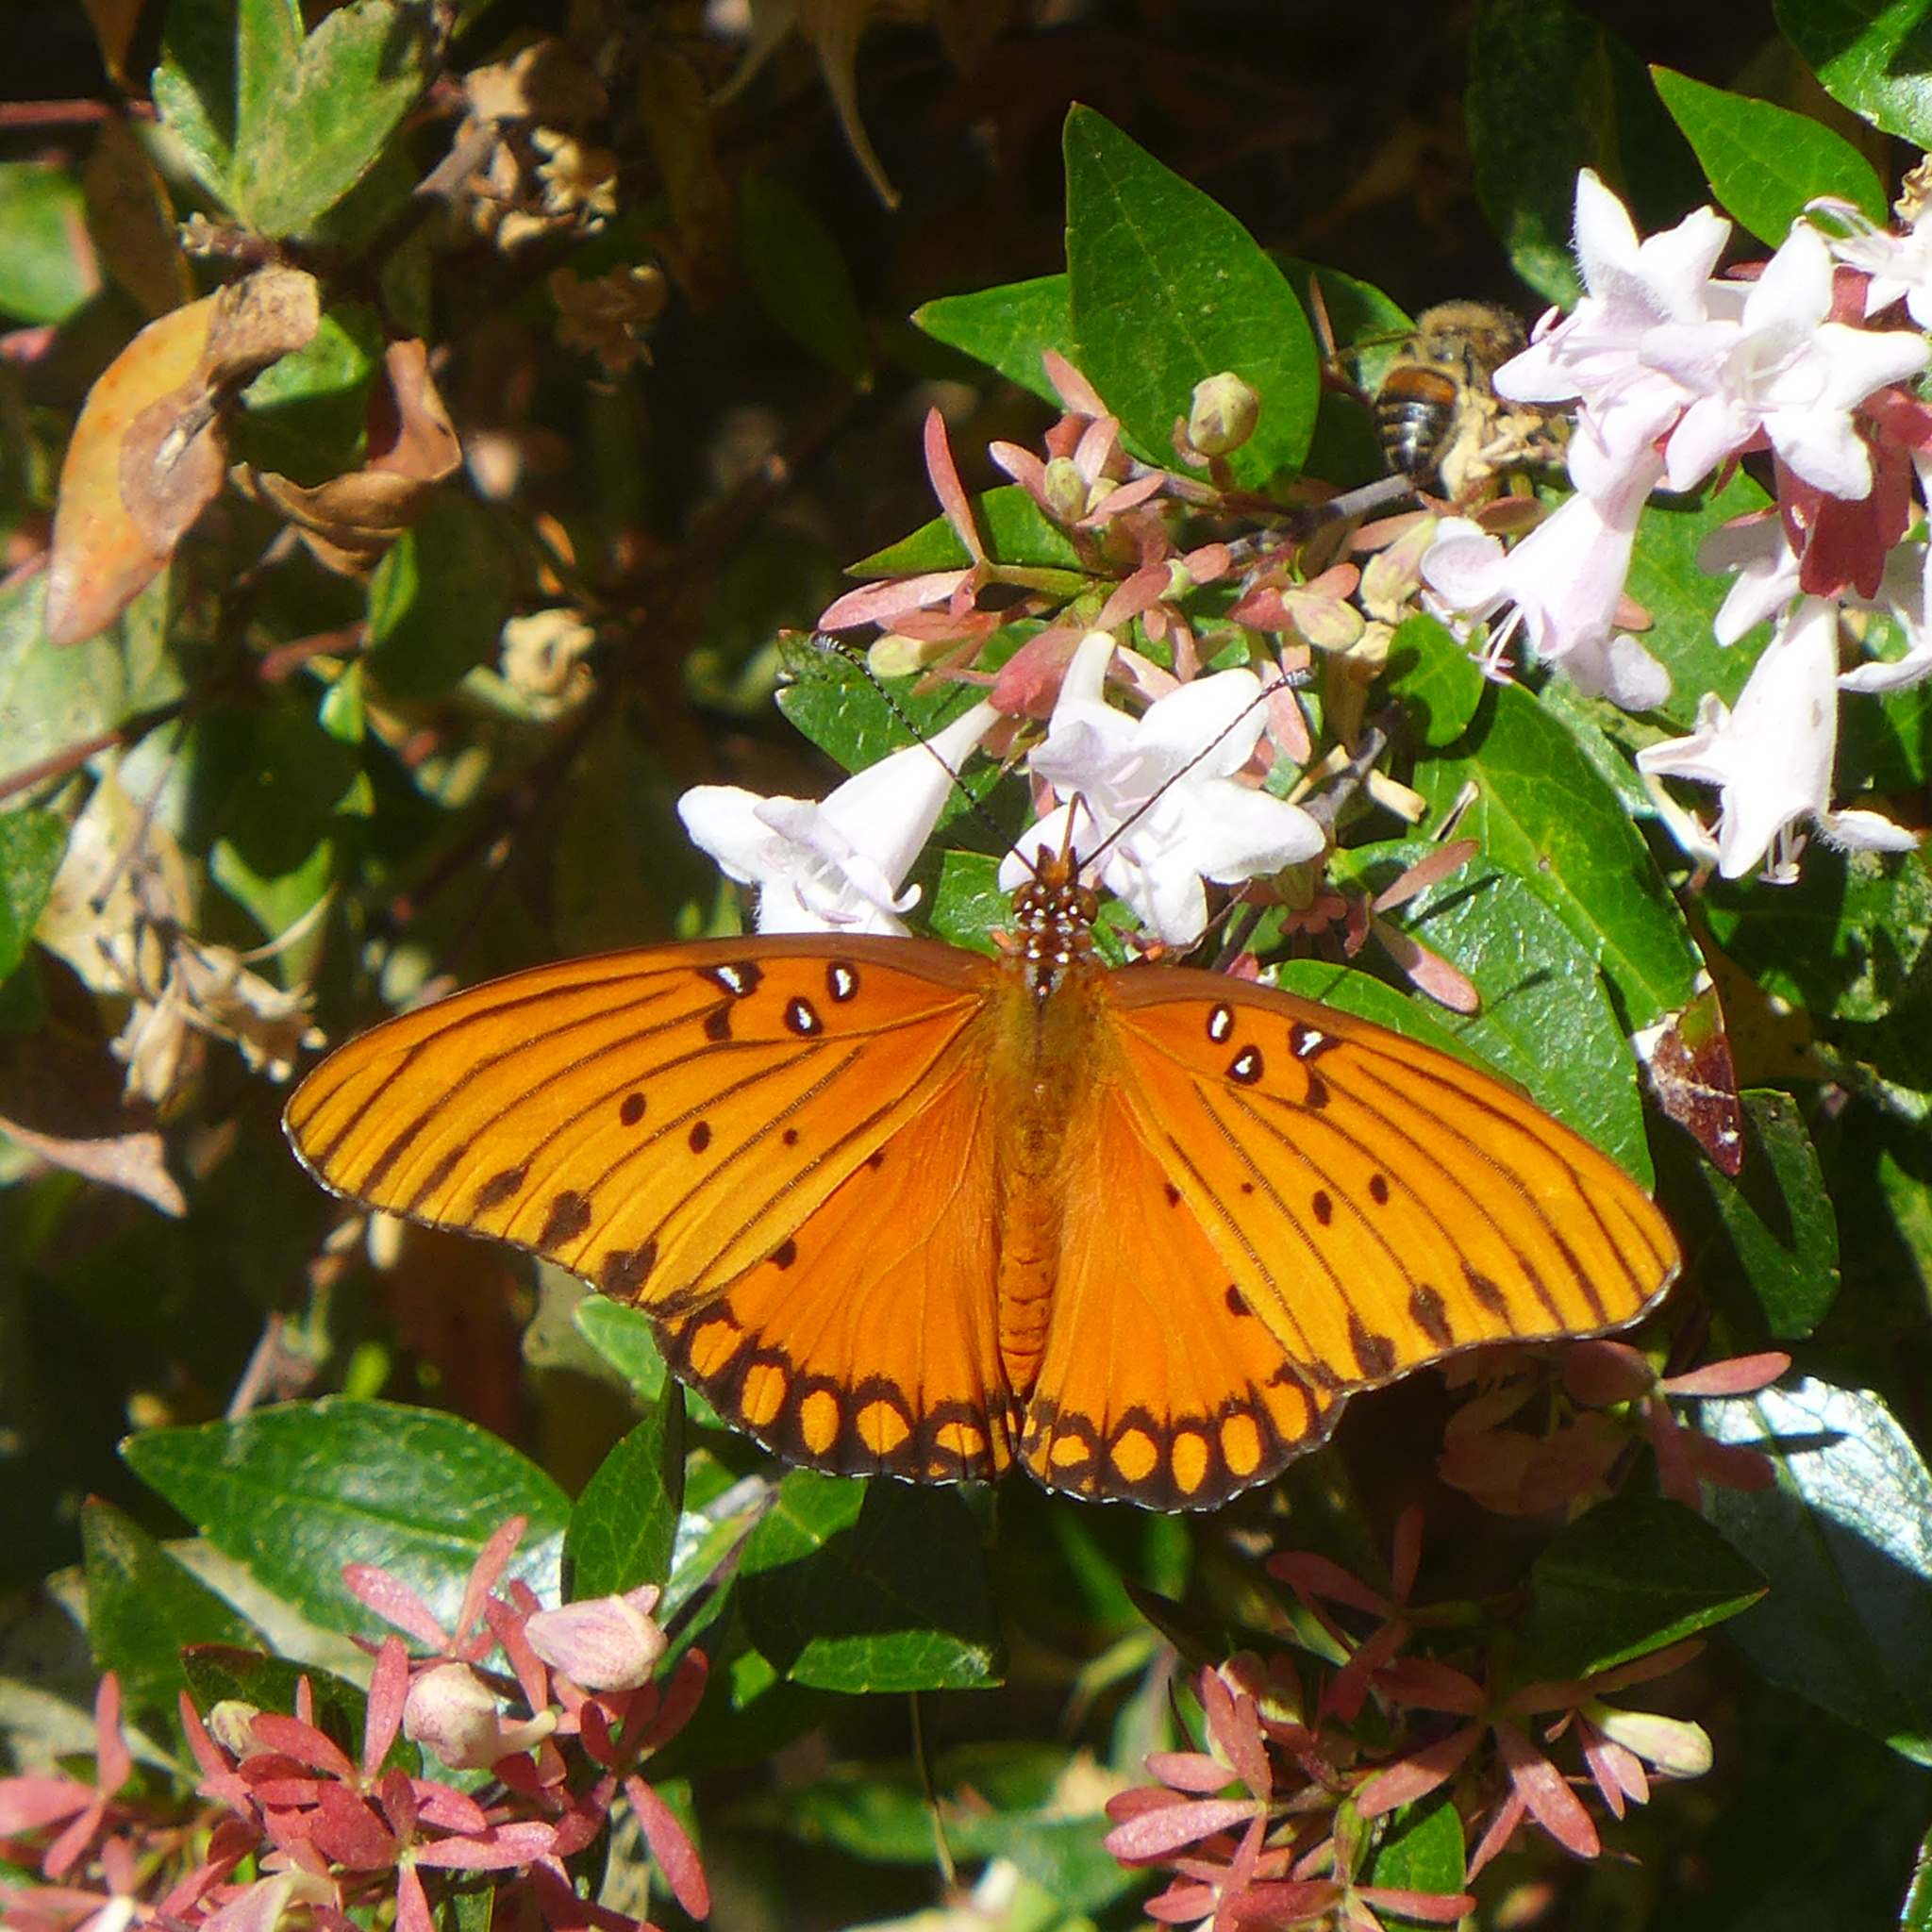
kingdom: Animalia
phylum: Arthropoda
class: Insecta
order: Lepidoptera
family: Nymphalidae
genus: Dione
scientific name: Dione vanillae
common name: Gulf fritillary
